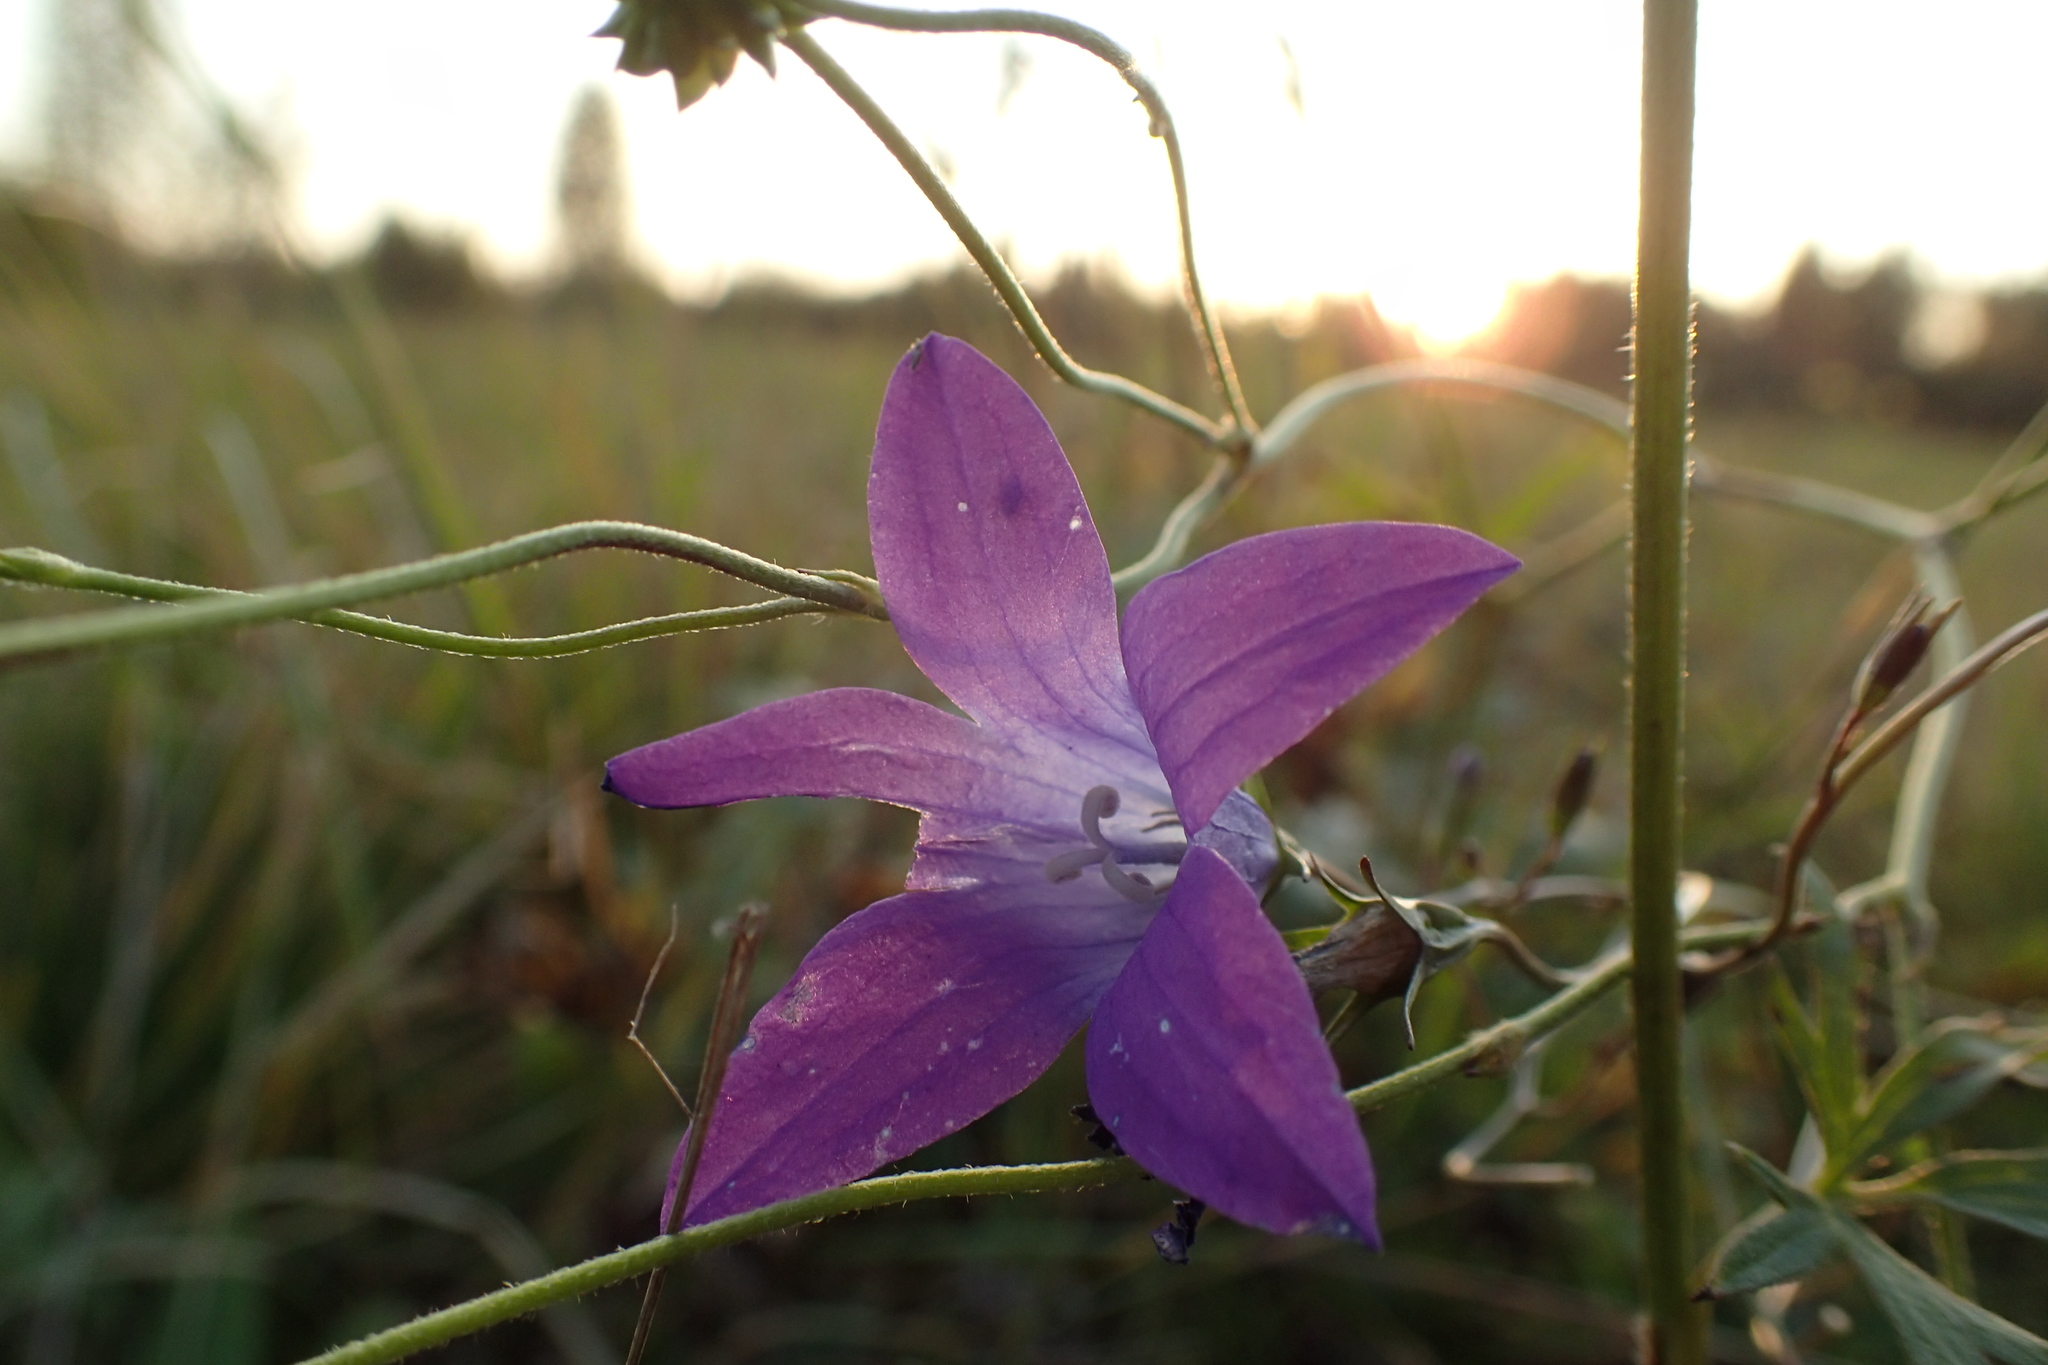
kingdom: Plantae
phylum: Tracheophyta
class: Magnoliopsida
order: Asterales
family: Campanulaceae
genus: Campanula
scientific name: Campanula patula
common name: Spreading bellflower
